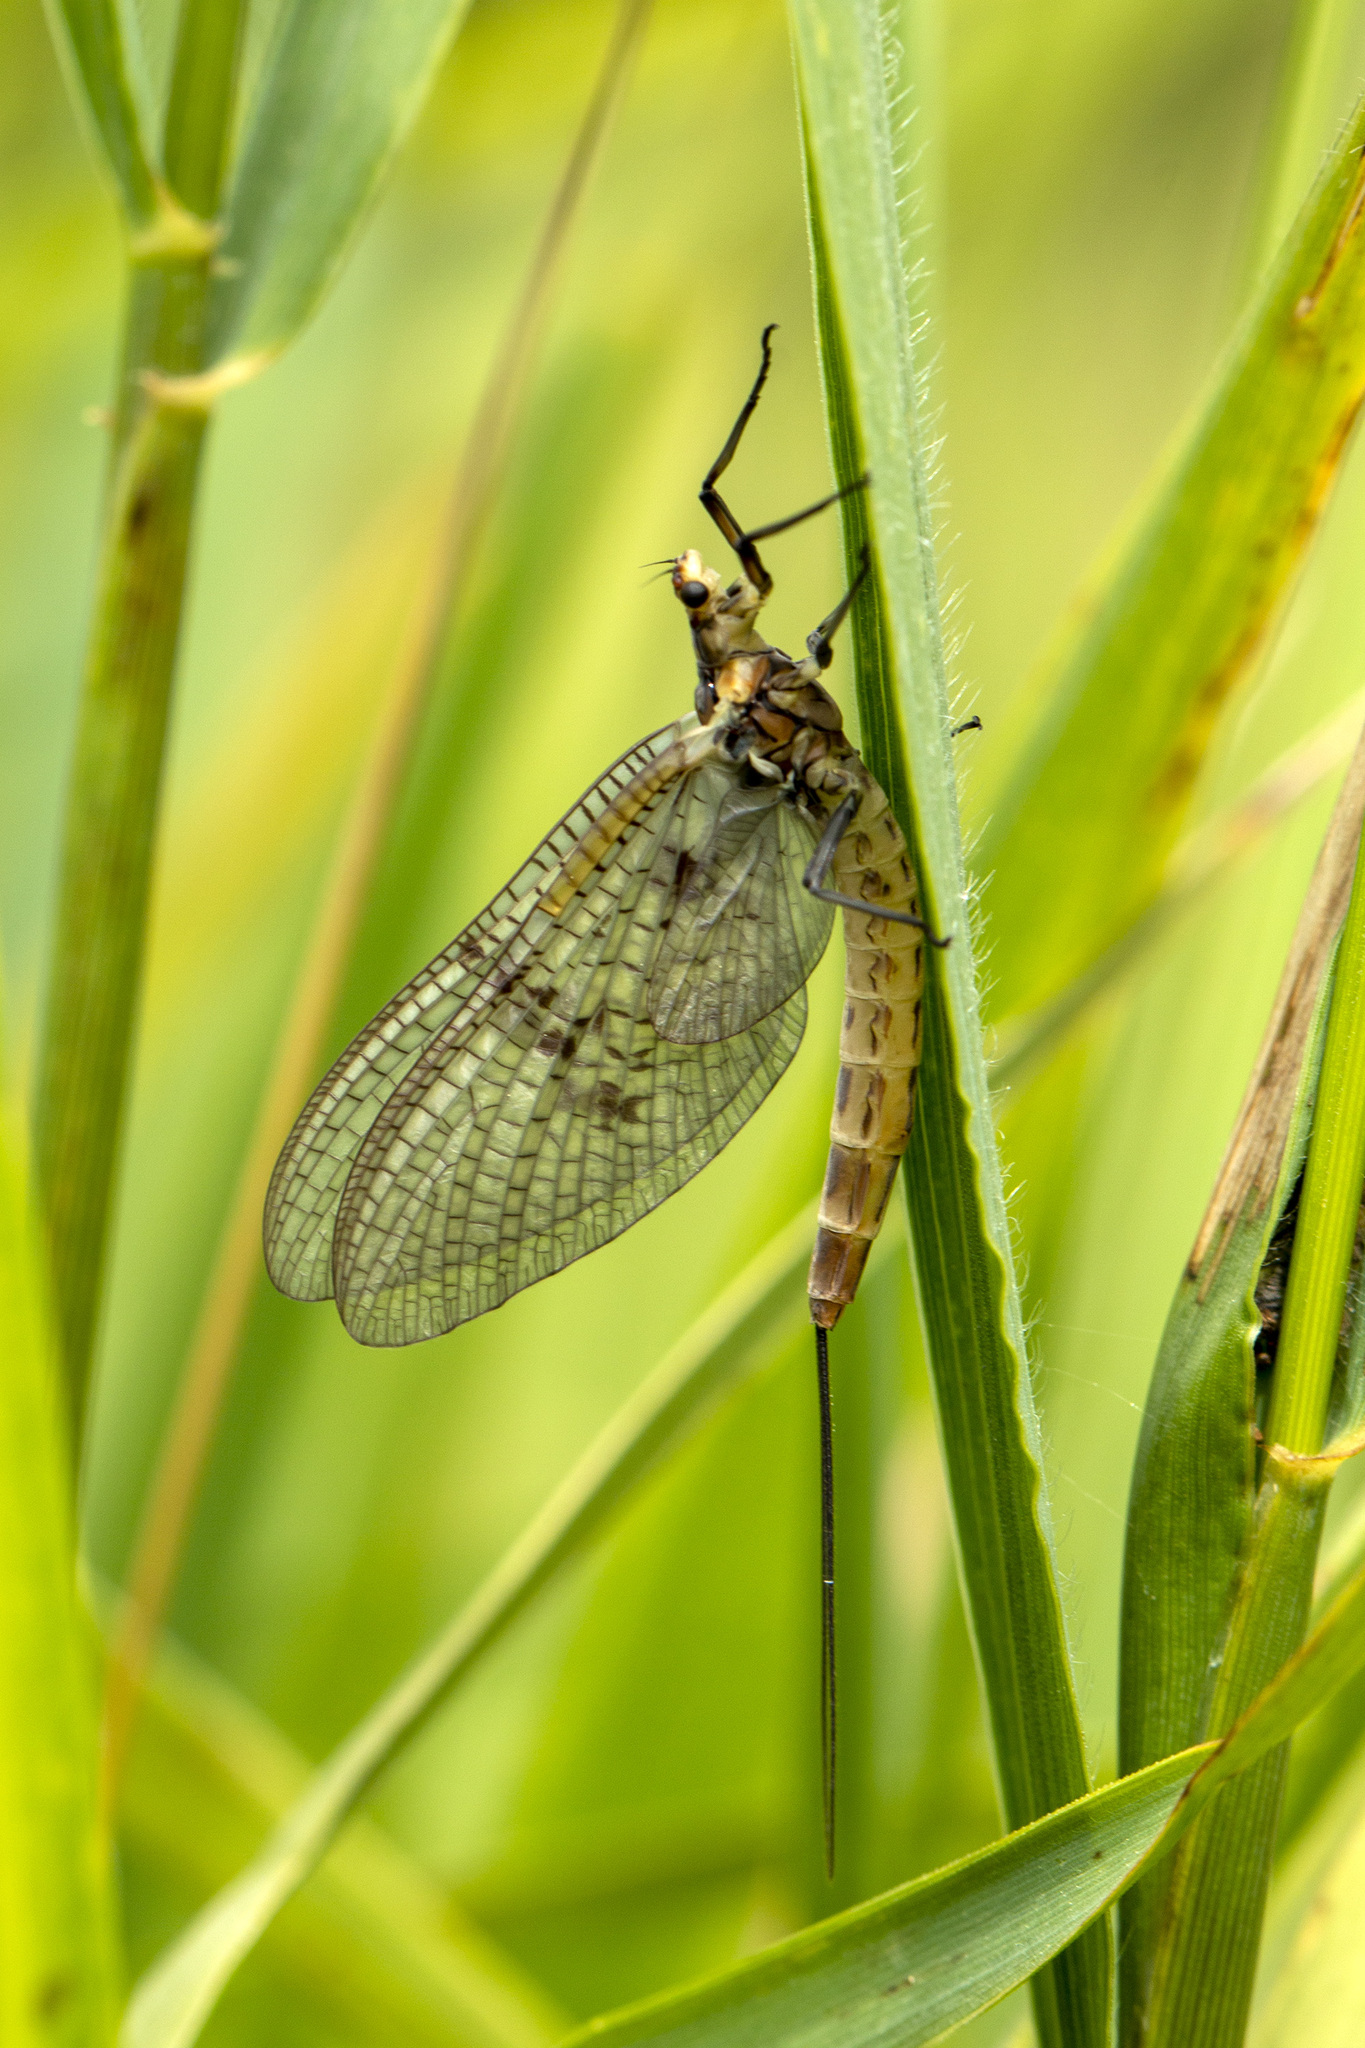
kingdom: Animalia
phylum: Arthropoda
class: Insecta
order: Ephemeroptera
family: Ephemeridae
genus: Ephemera
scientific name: Ephemera danica
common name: Green dun
